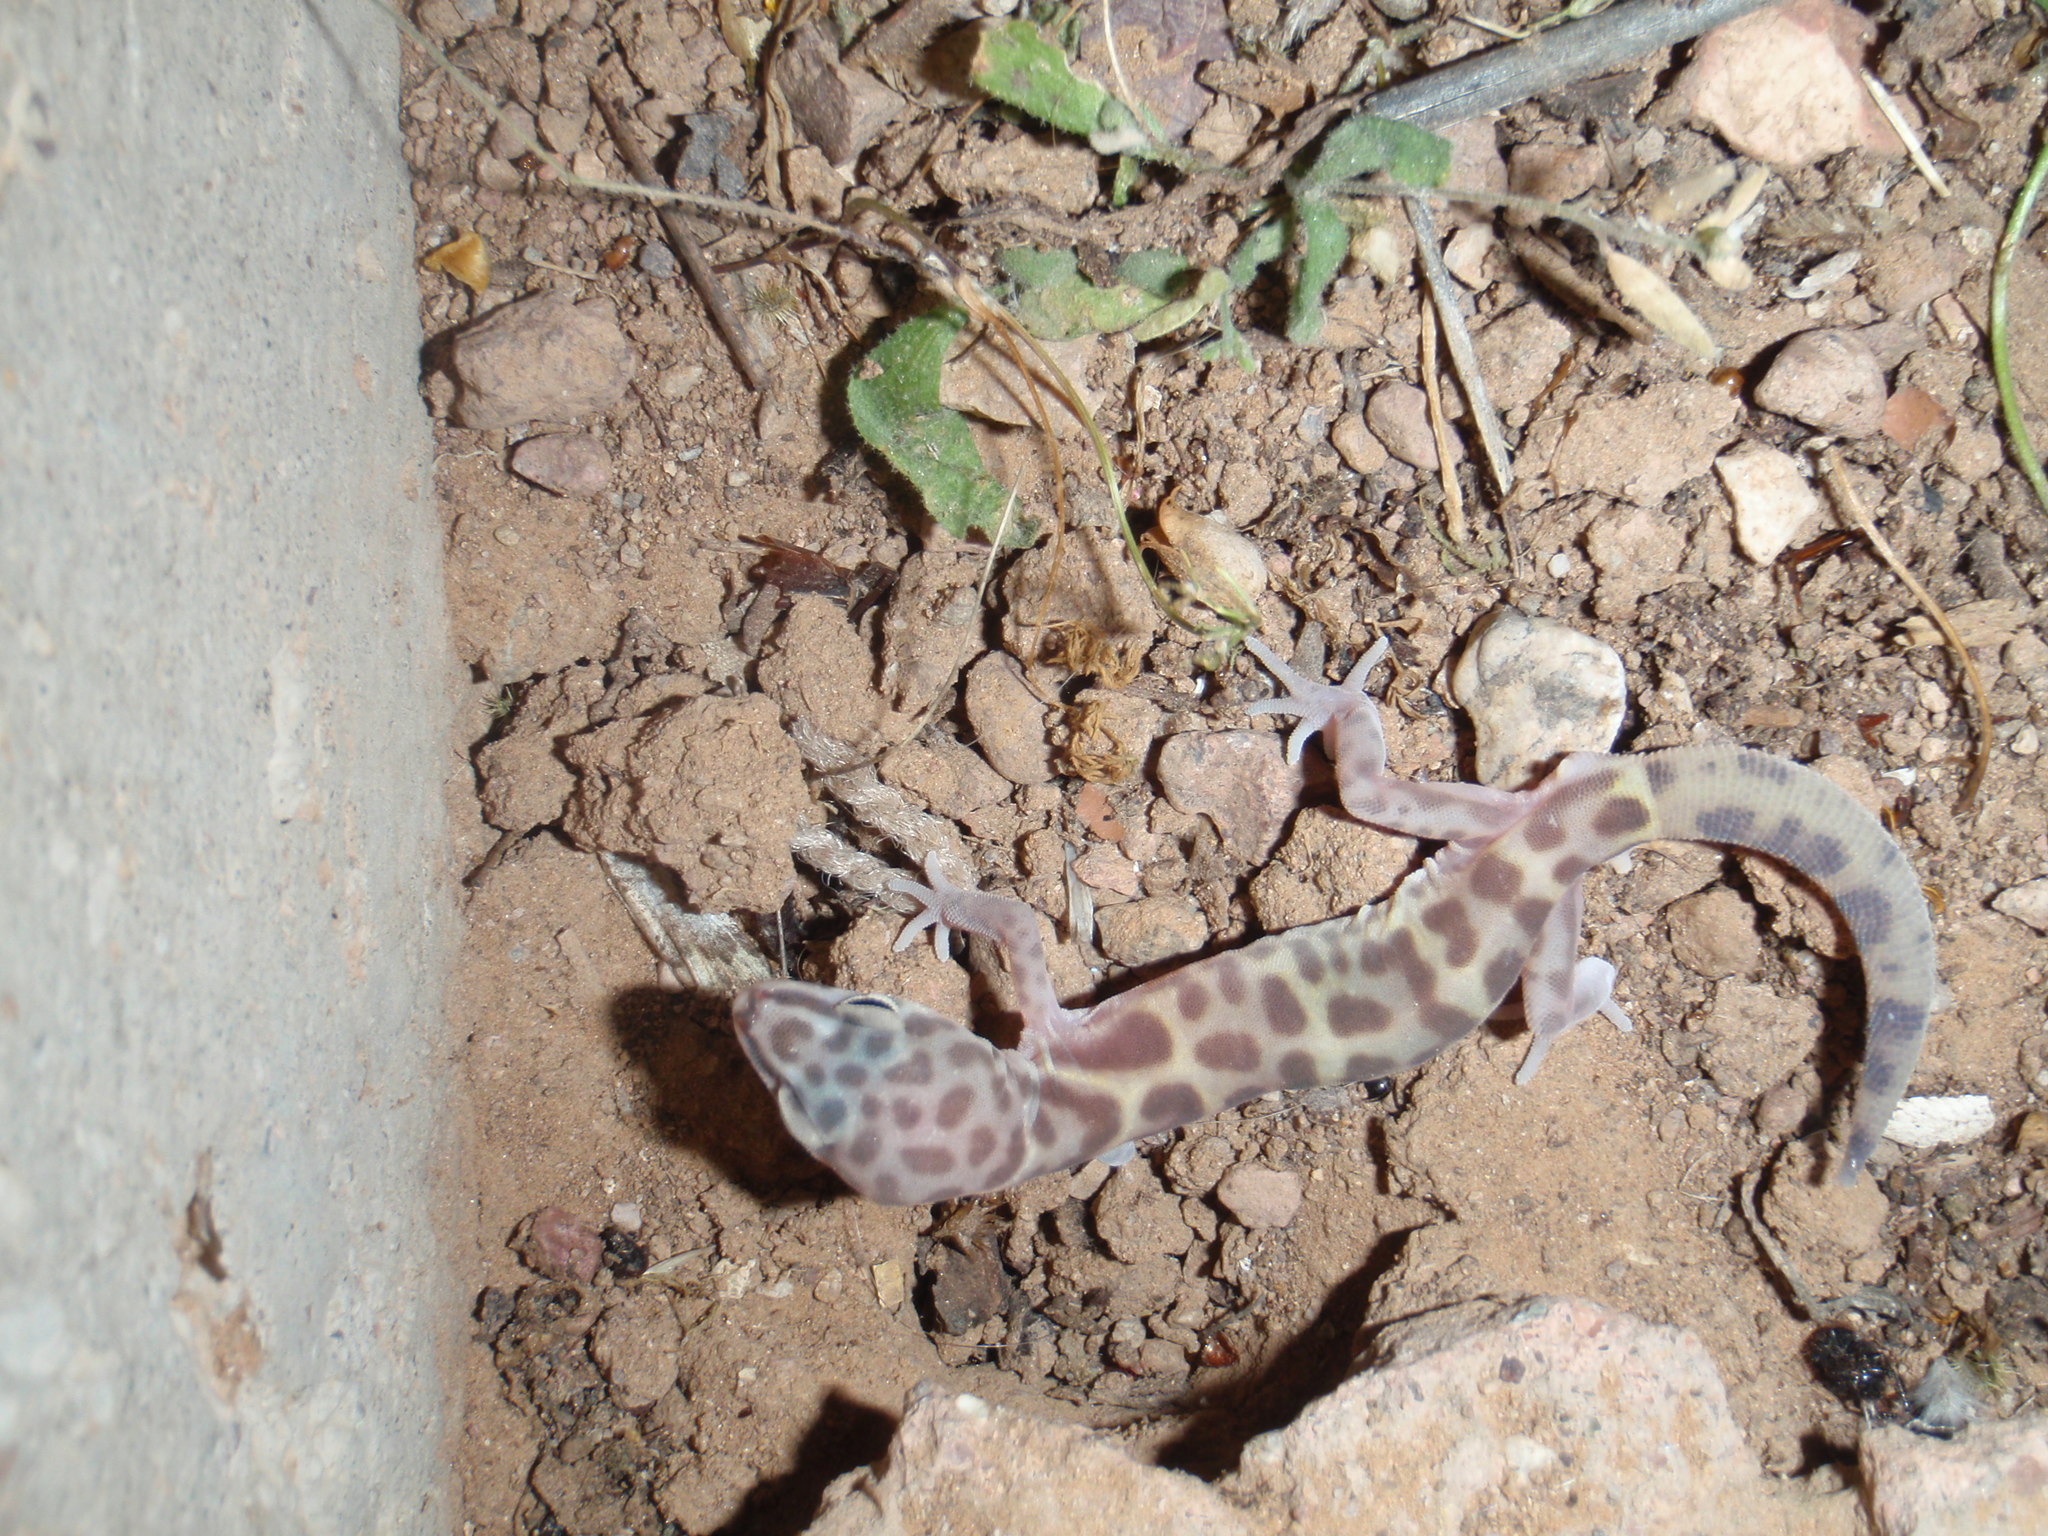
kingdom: Animalia
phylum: Chordata
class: Squamata
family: Eublepharidae
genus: Coleonyx
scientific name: Coleonyx variegatus
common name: Western banded gecko
